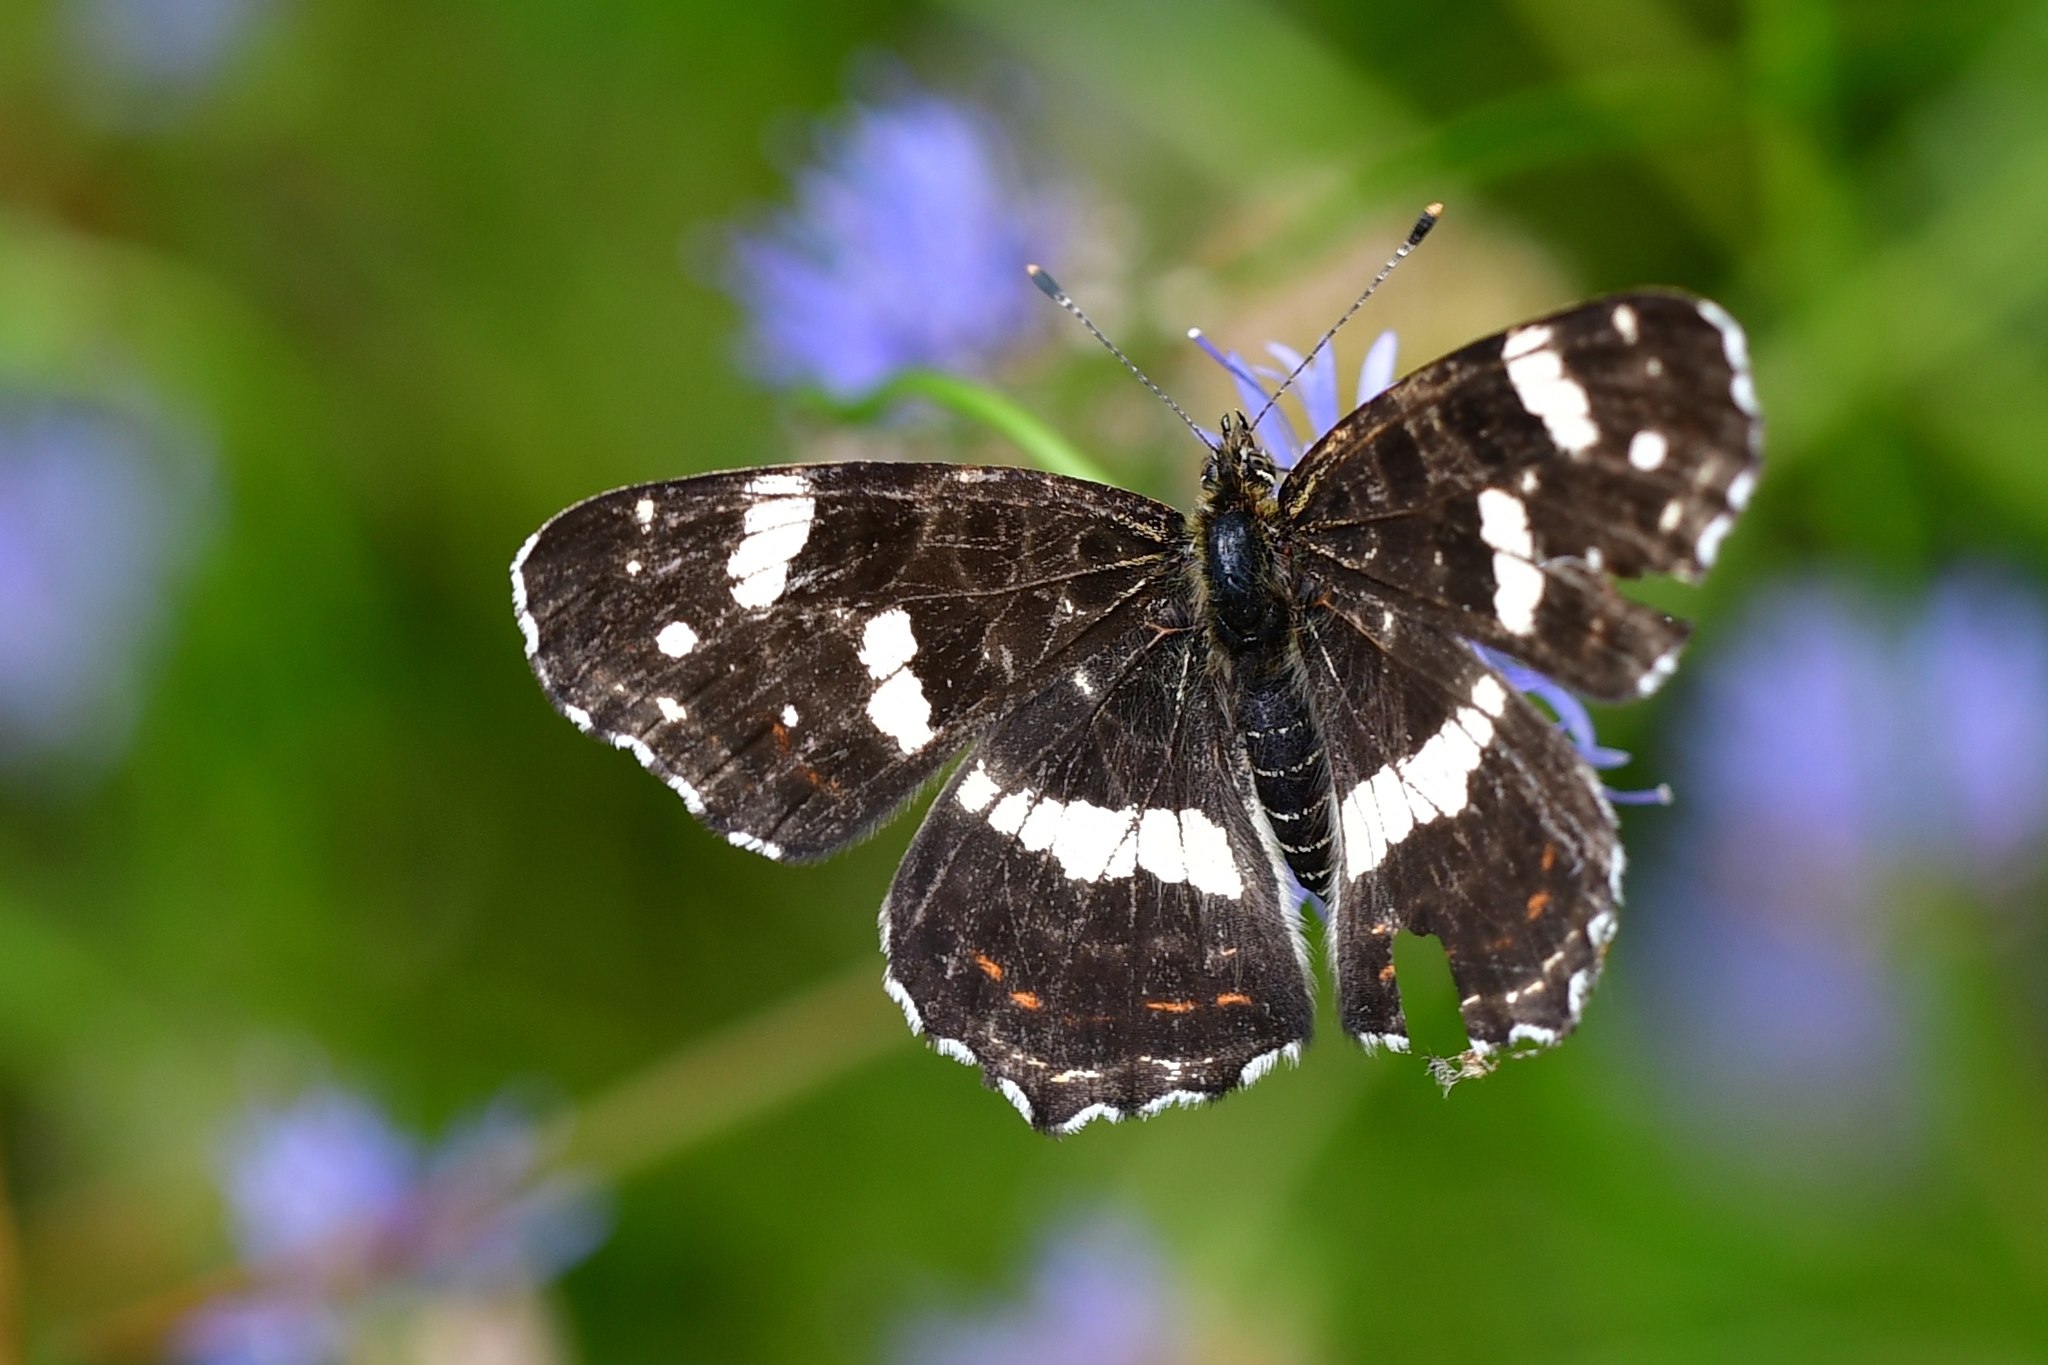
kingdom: Animalia
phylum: Arthropoda
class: Insecta
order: Lepidoptera
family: Nymphalidae
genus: Araschnia
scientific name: Araschnia levana
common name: Map butterfly
